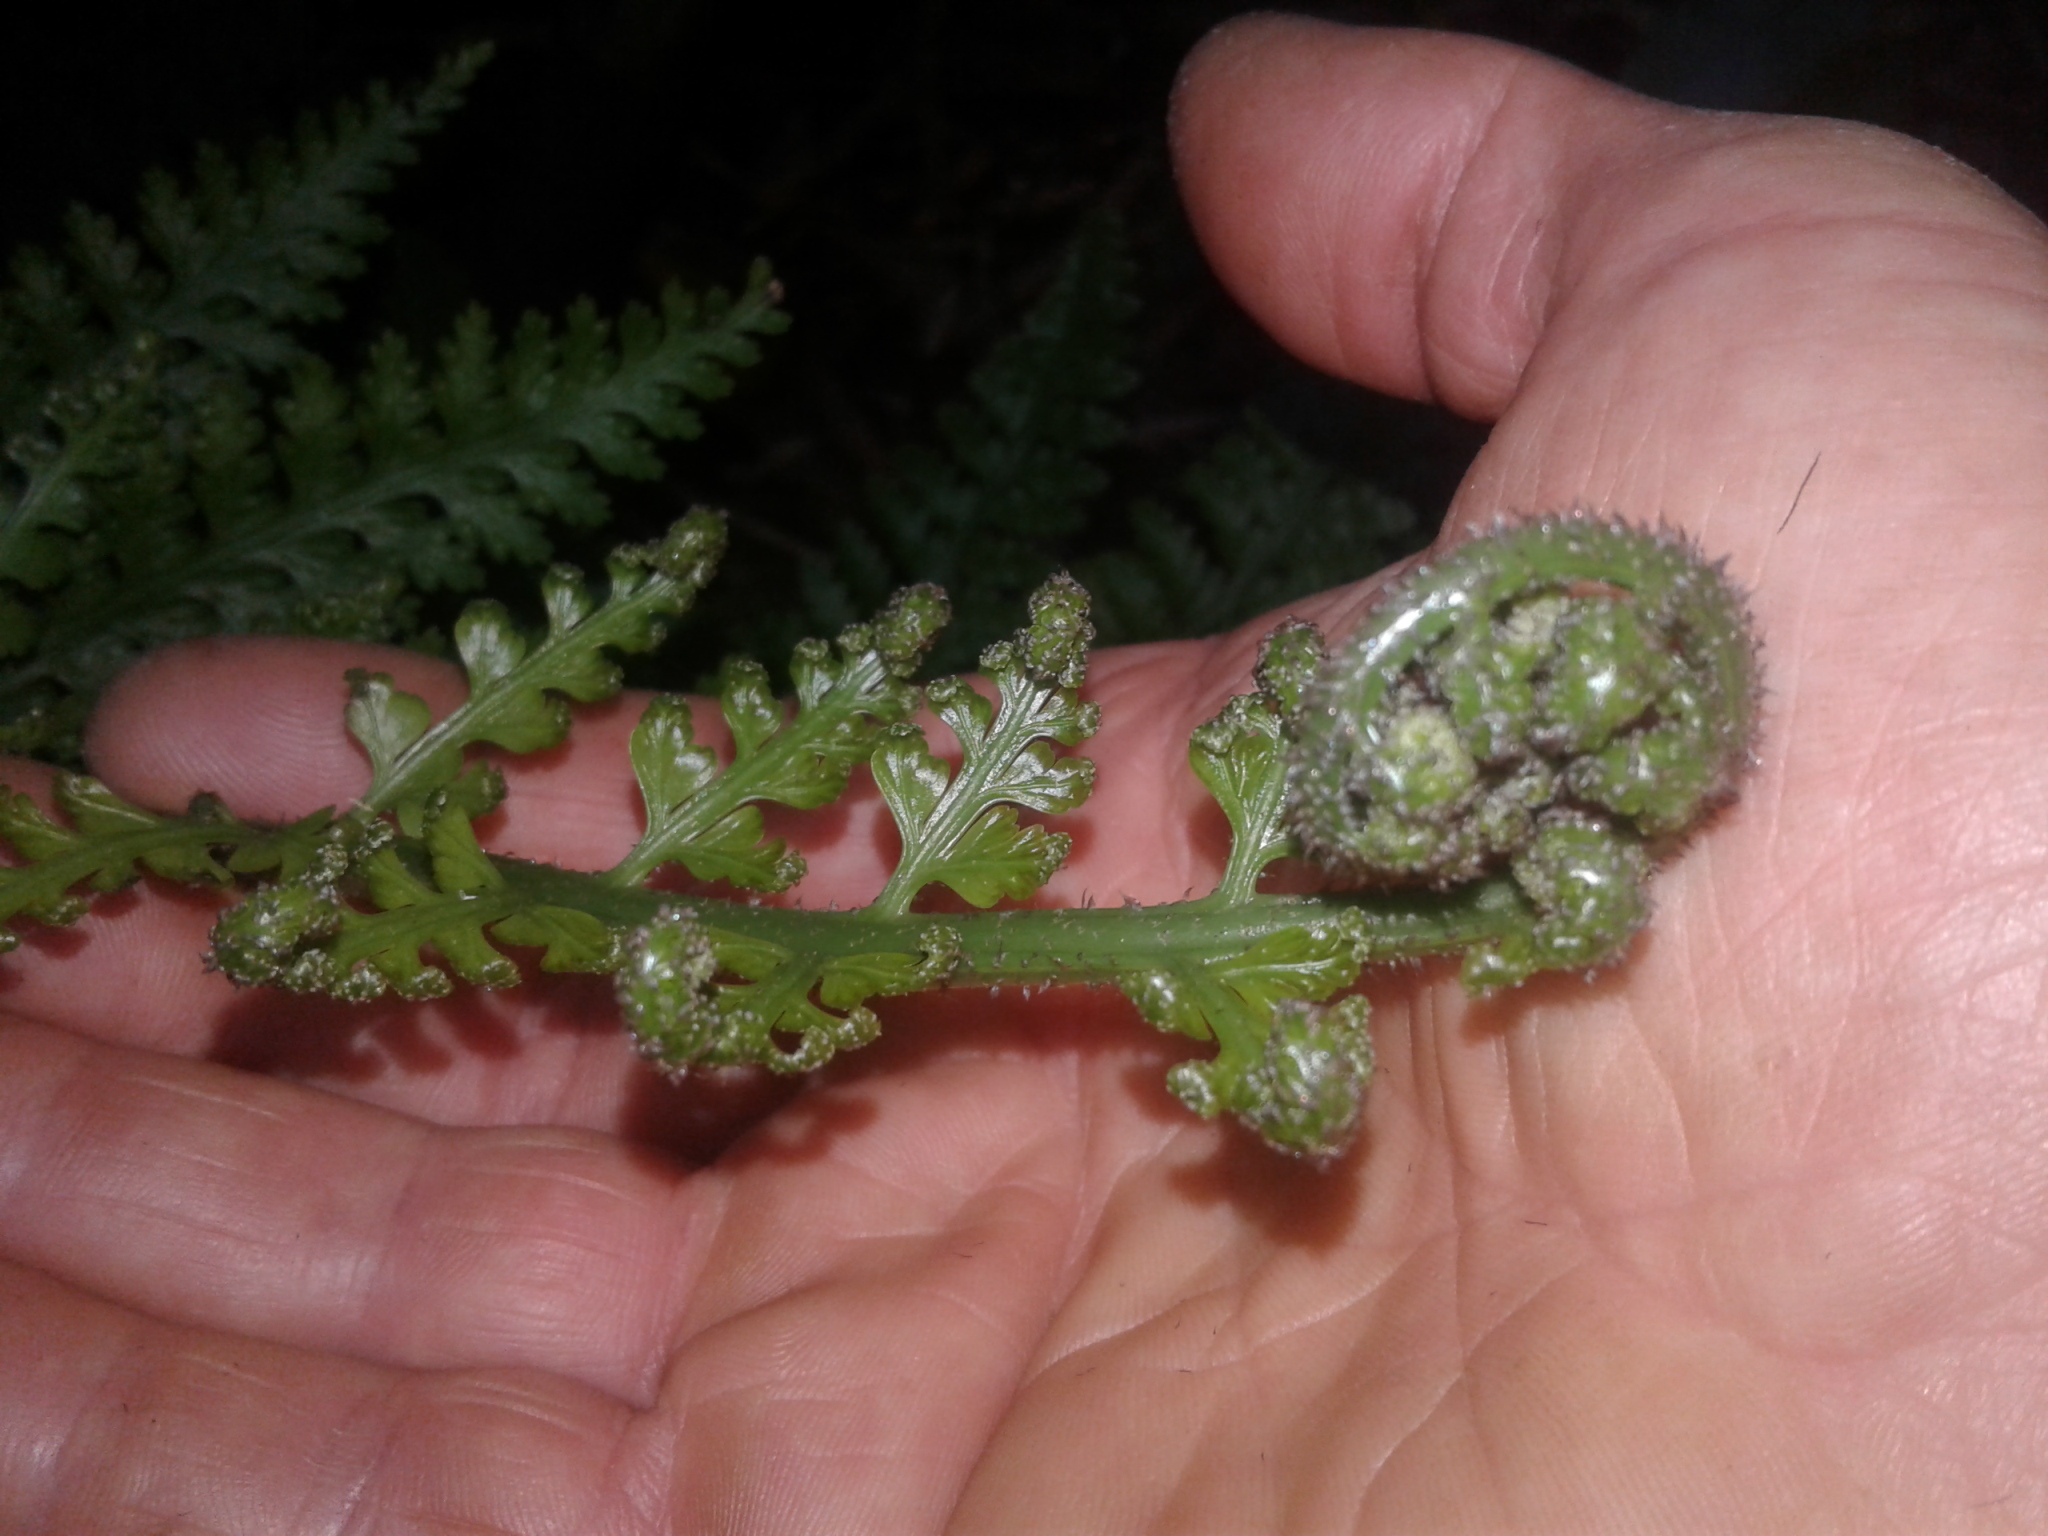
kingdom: Plantae
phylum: Tracheophyta
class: Polypodiopsida
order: Polypodiales
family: Aspleniaceae
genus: Asplenium
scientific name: Asplenium bulbiferum
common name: Mother fern
